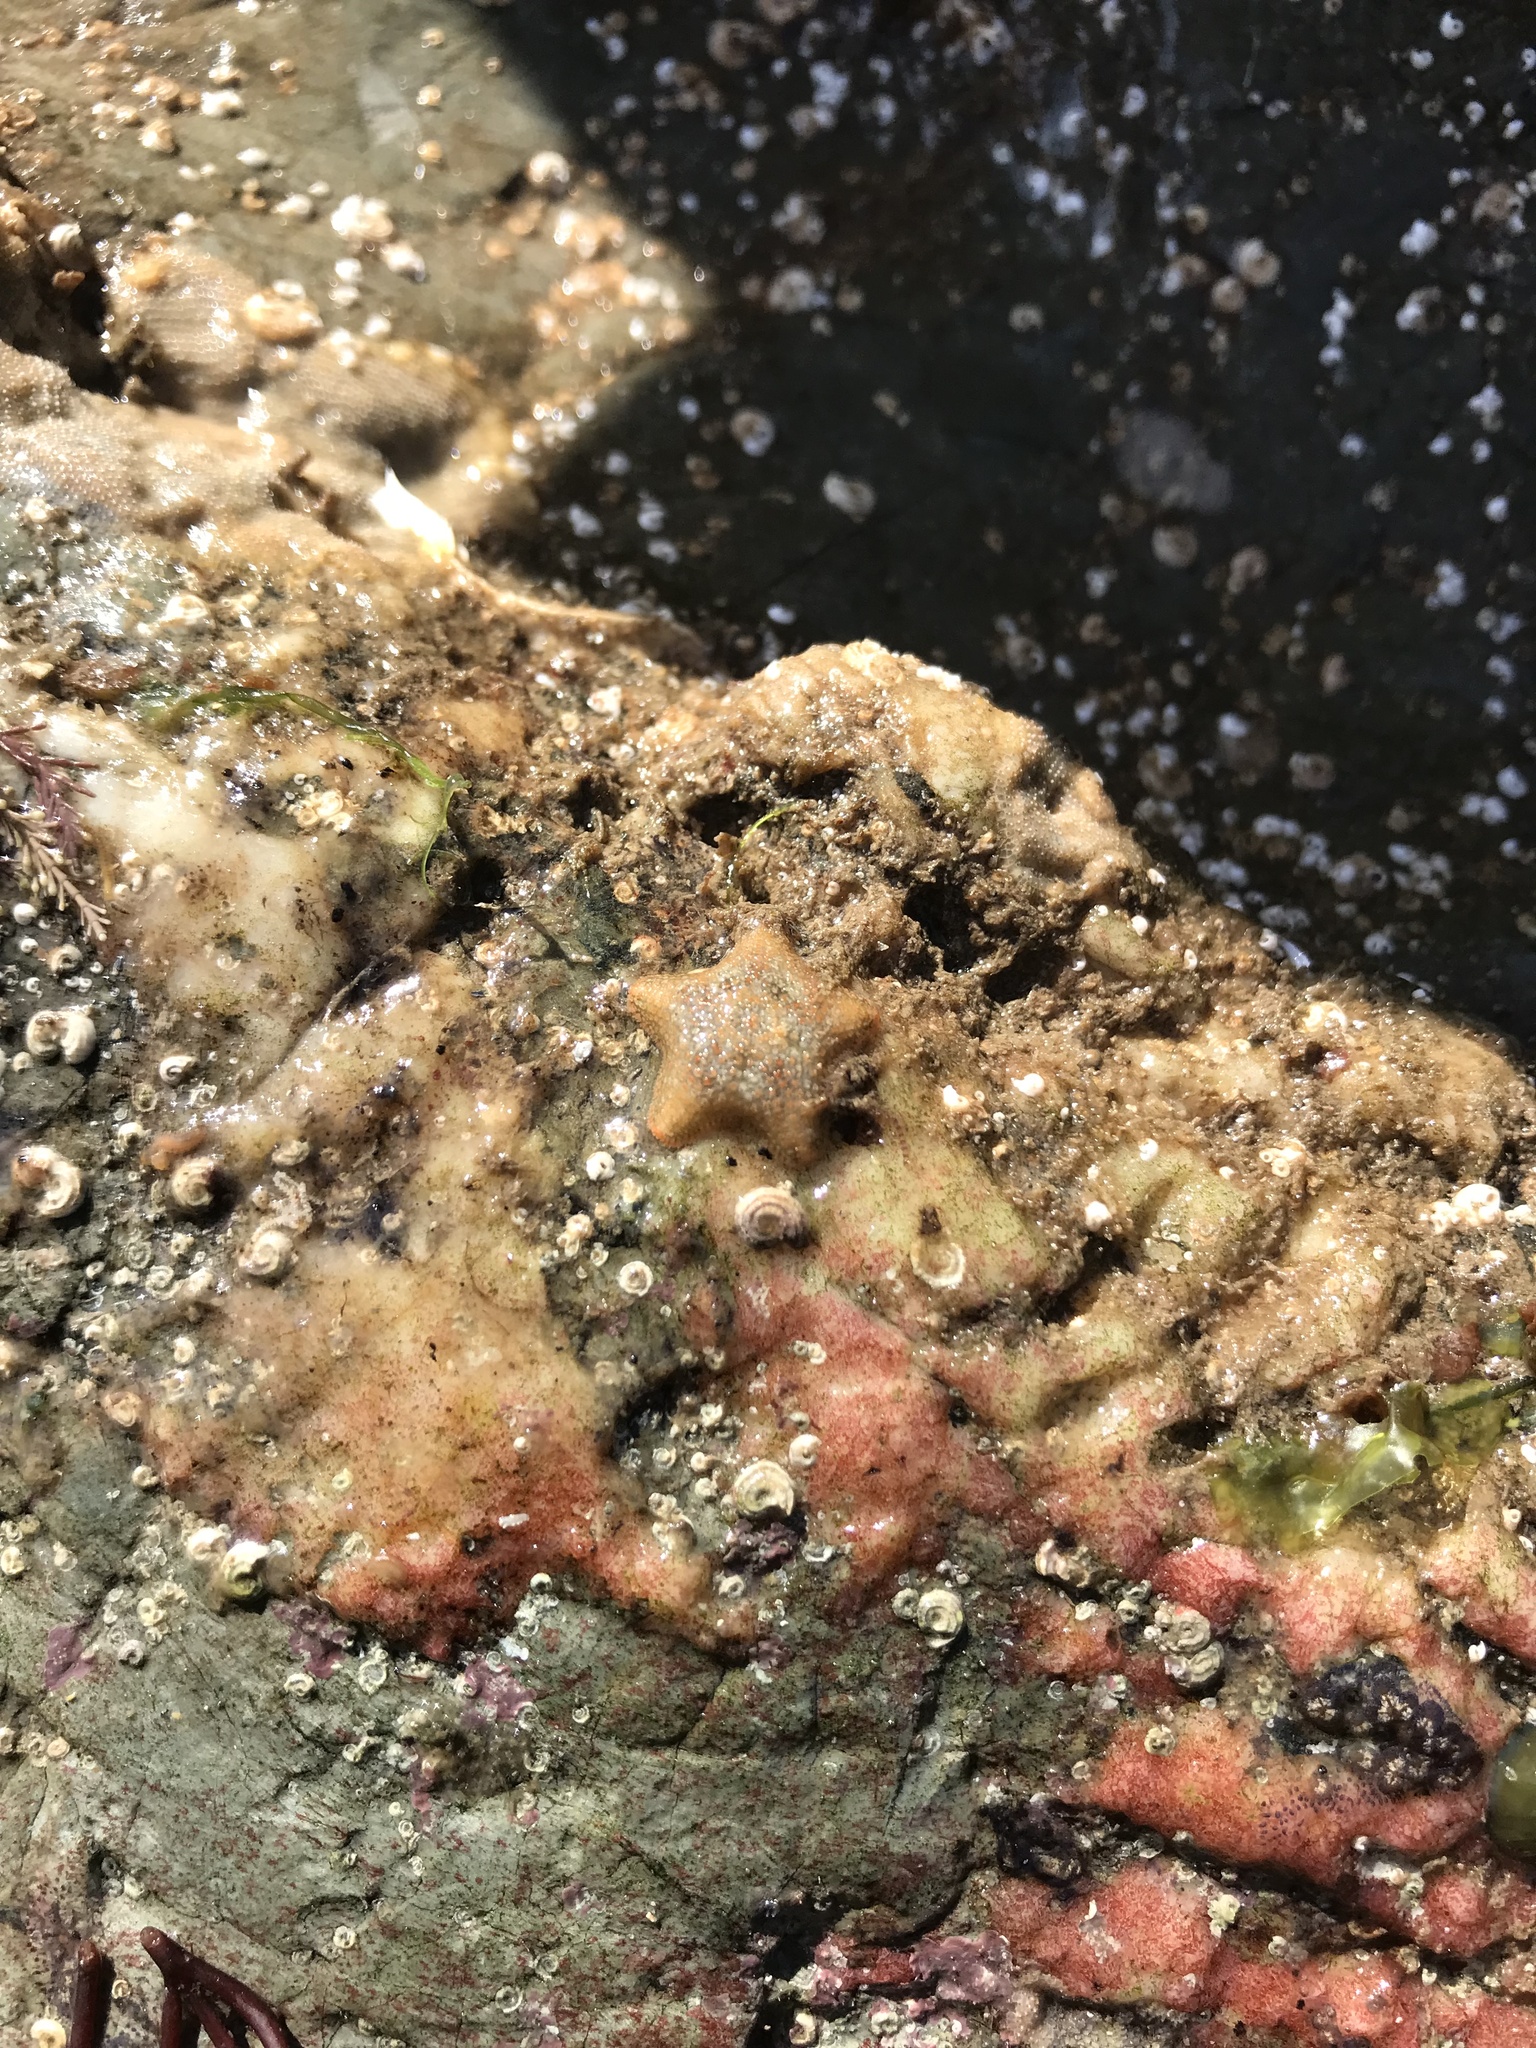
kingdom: Animalia
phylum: Echinodermata
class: Asteroidea
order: Valvatida
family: Asterinidae
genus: Asterina
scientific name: Asterina gibbosa
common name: Cushion star
